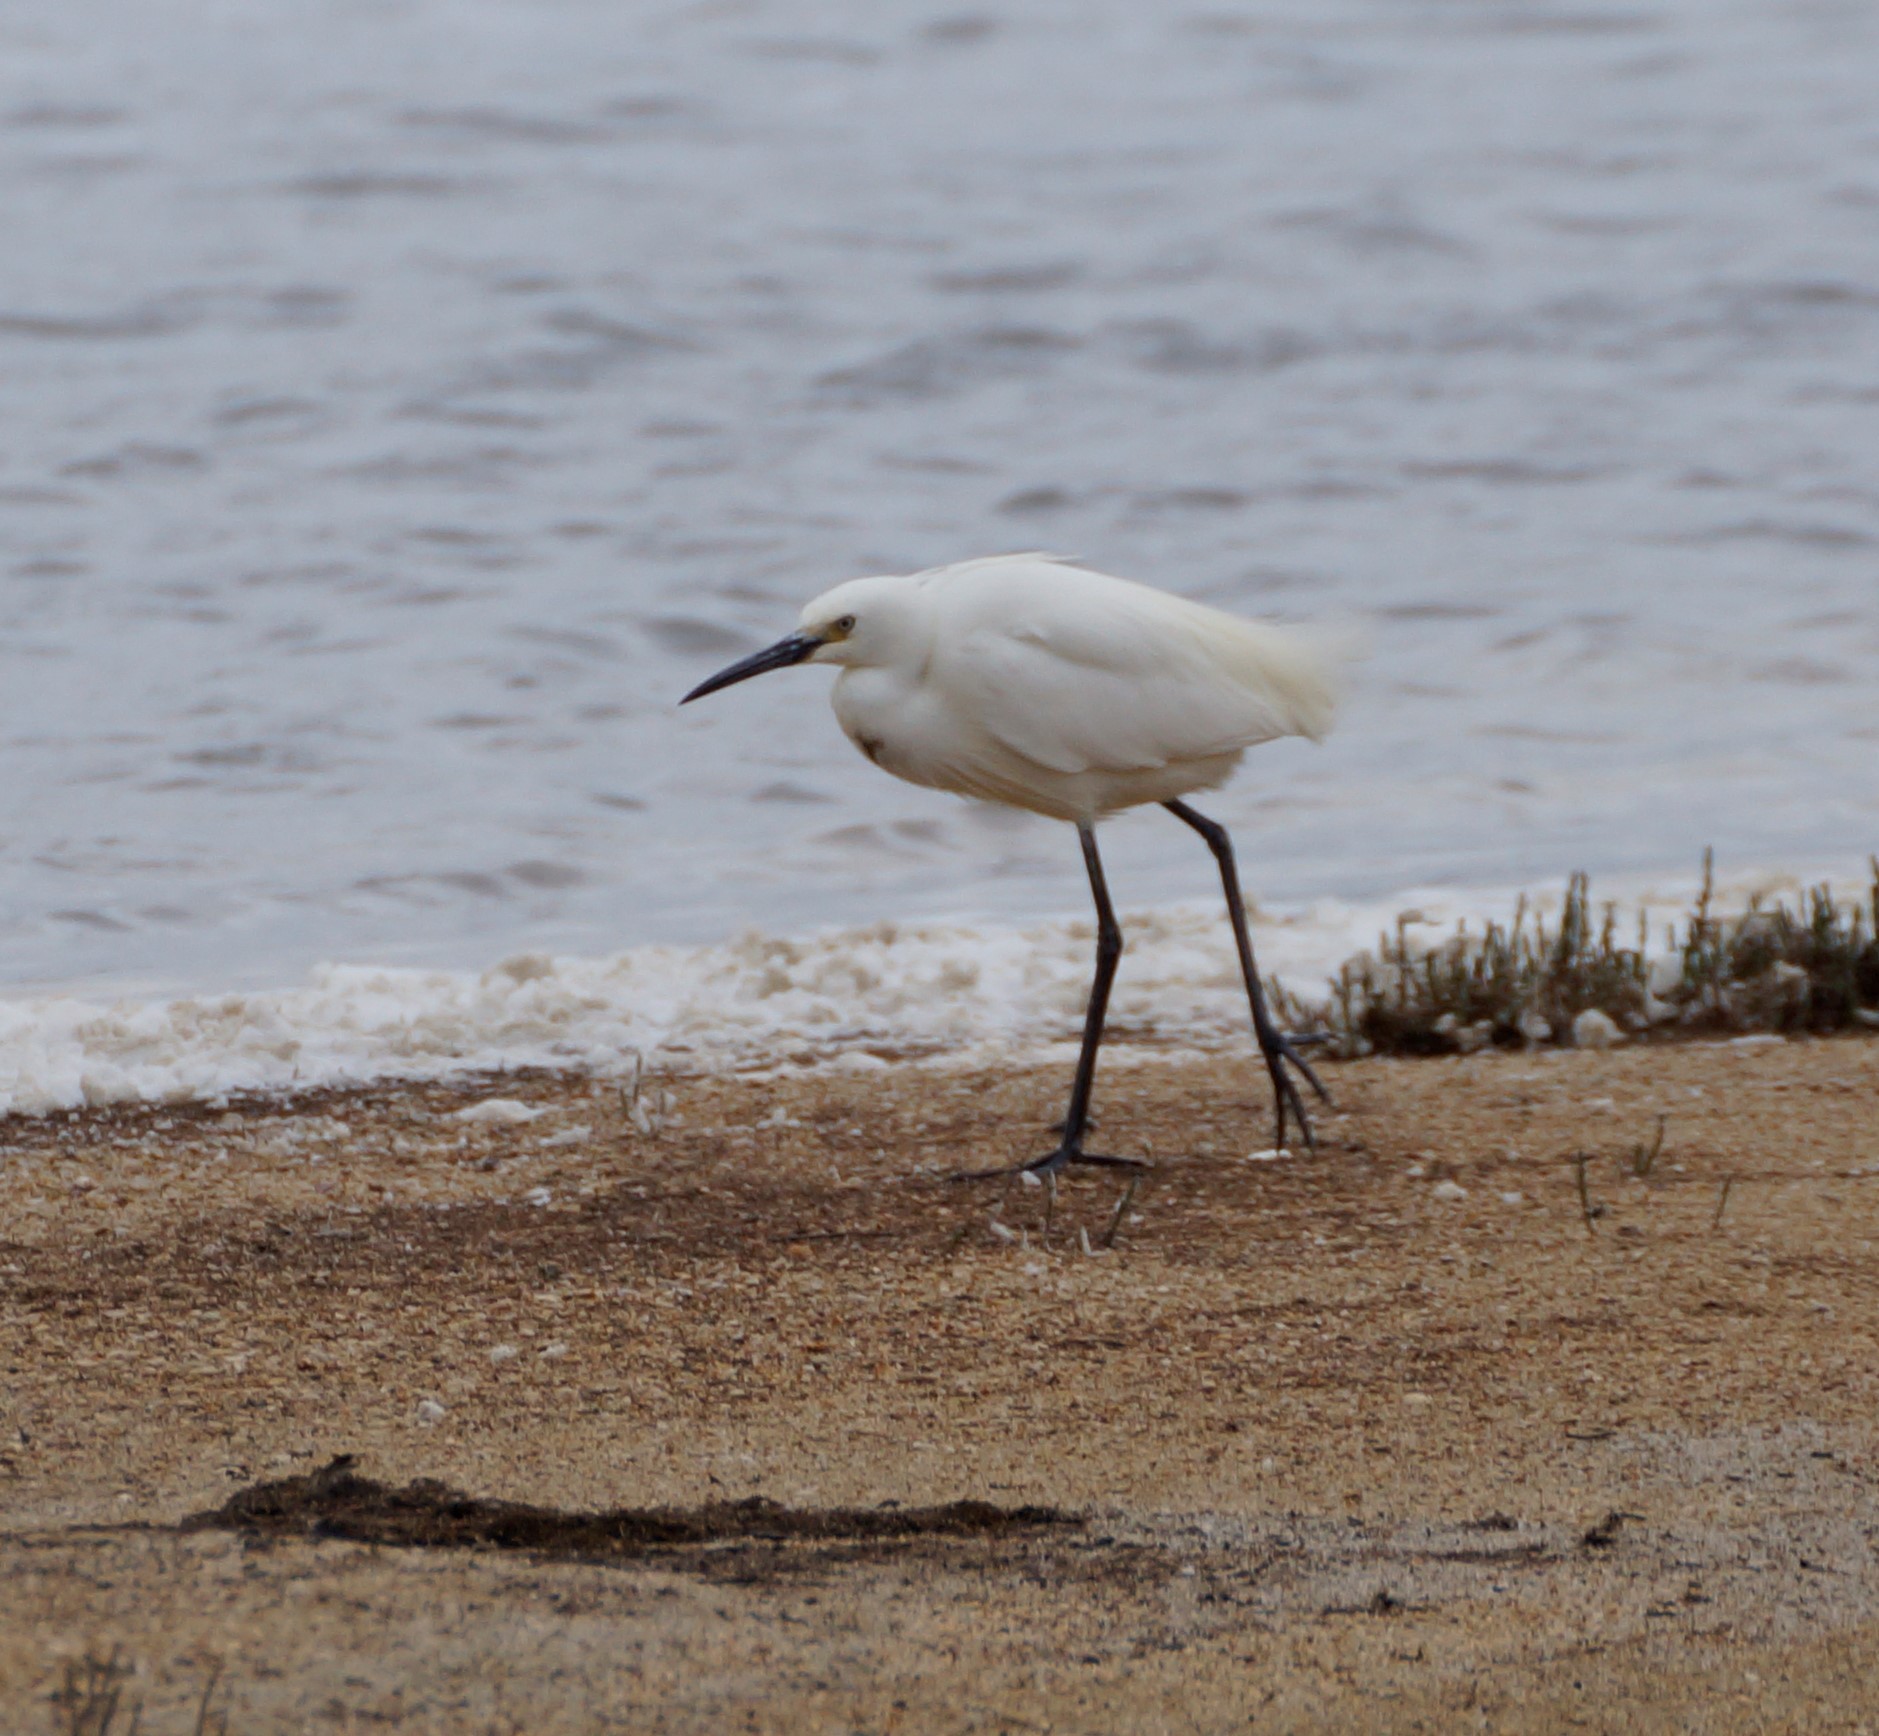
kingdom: Animalia
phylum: Chordata
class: Aves
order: Pelecaniformes
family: Ardeidae
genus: Egretta
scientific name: Egretta garzetta
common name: Little egret
